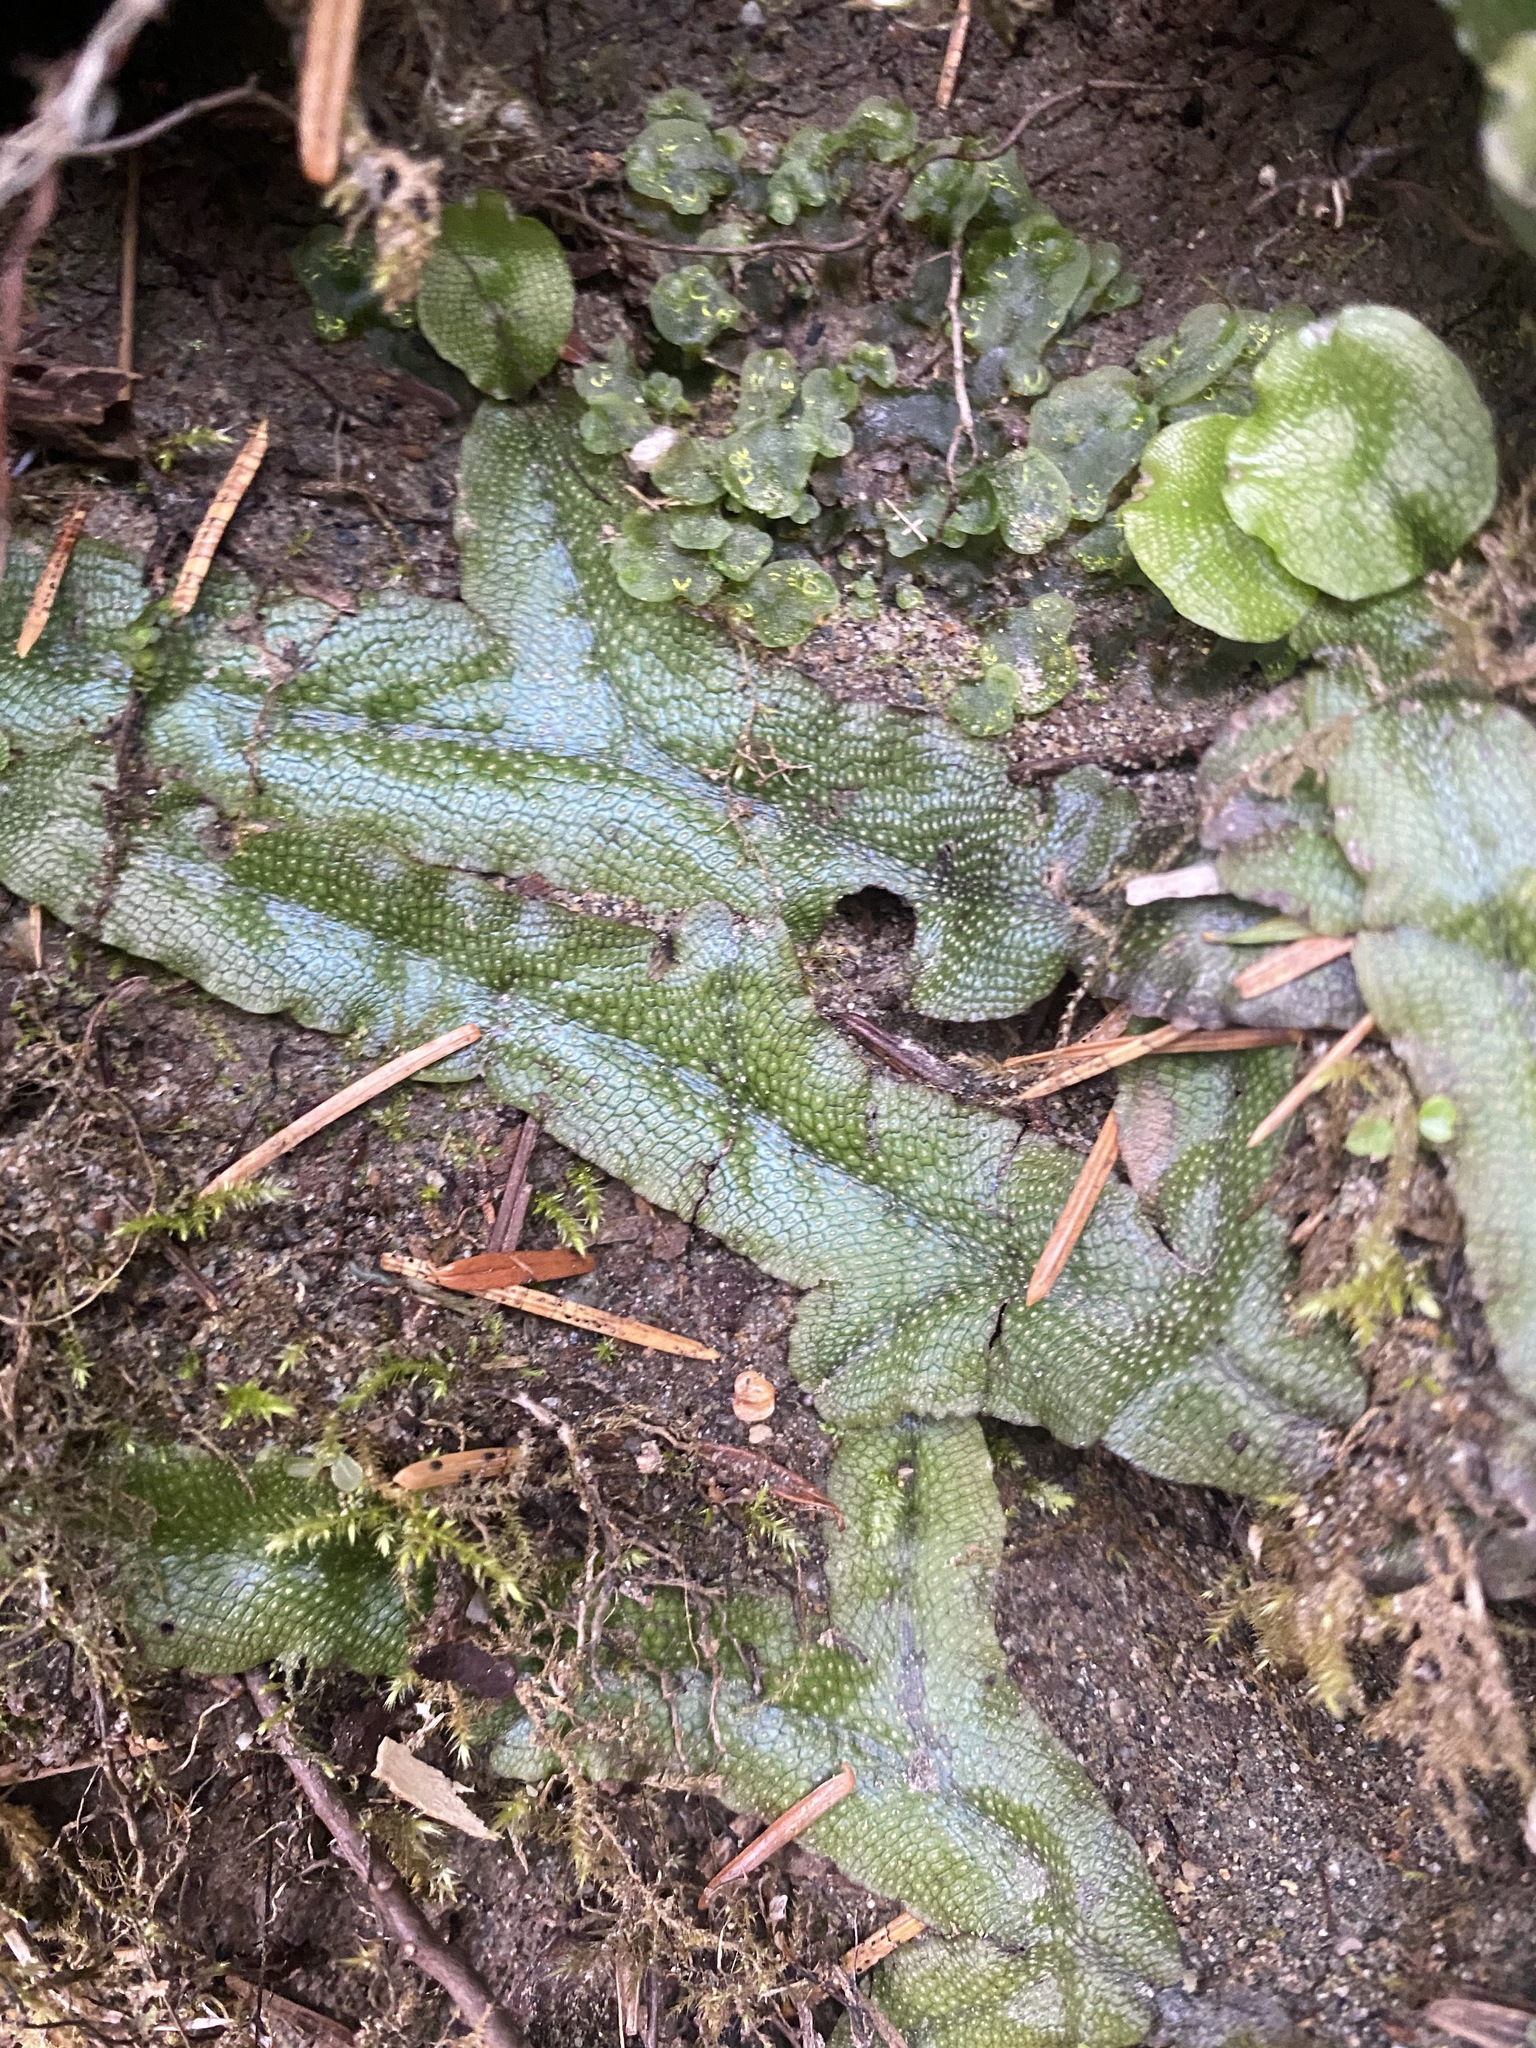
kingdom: Plantae
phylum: Marchantiophyta
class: Marchantiopsida
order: Marchantiales
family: Conocephalaceae
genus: Conocephalum
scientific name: Conocephalum salebrosum
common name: Cat-tongue liverwort
